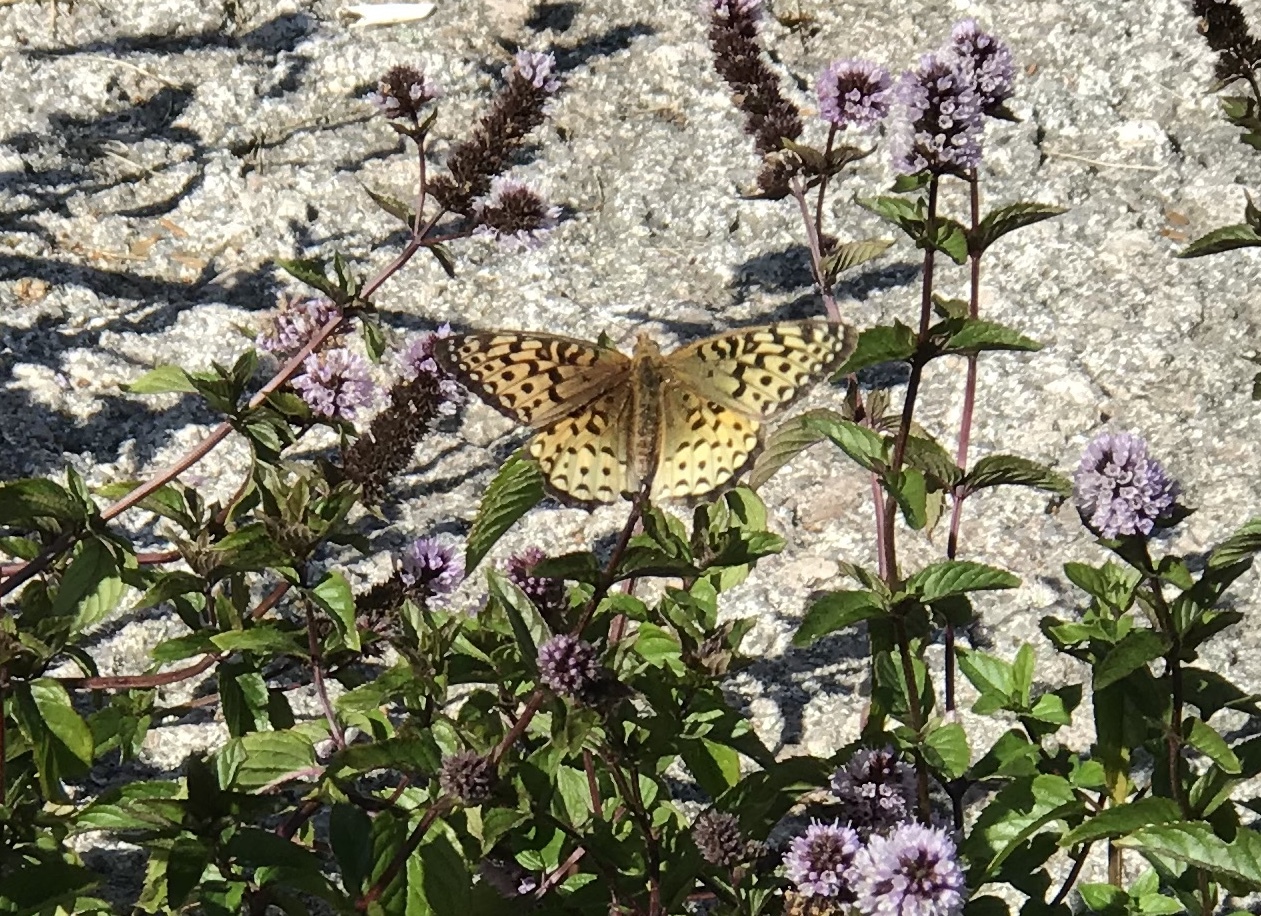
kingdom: Animalia
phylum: Arthropoda
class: Insecta
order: Lepidoptera
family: Nymphalidae
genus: Speyeria
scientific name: Speyeria atlantis
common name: Atlantis fritillary
